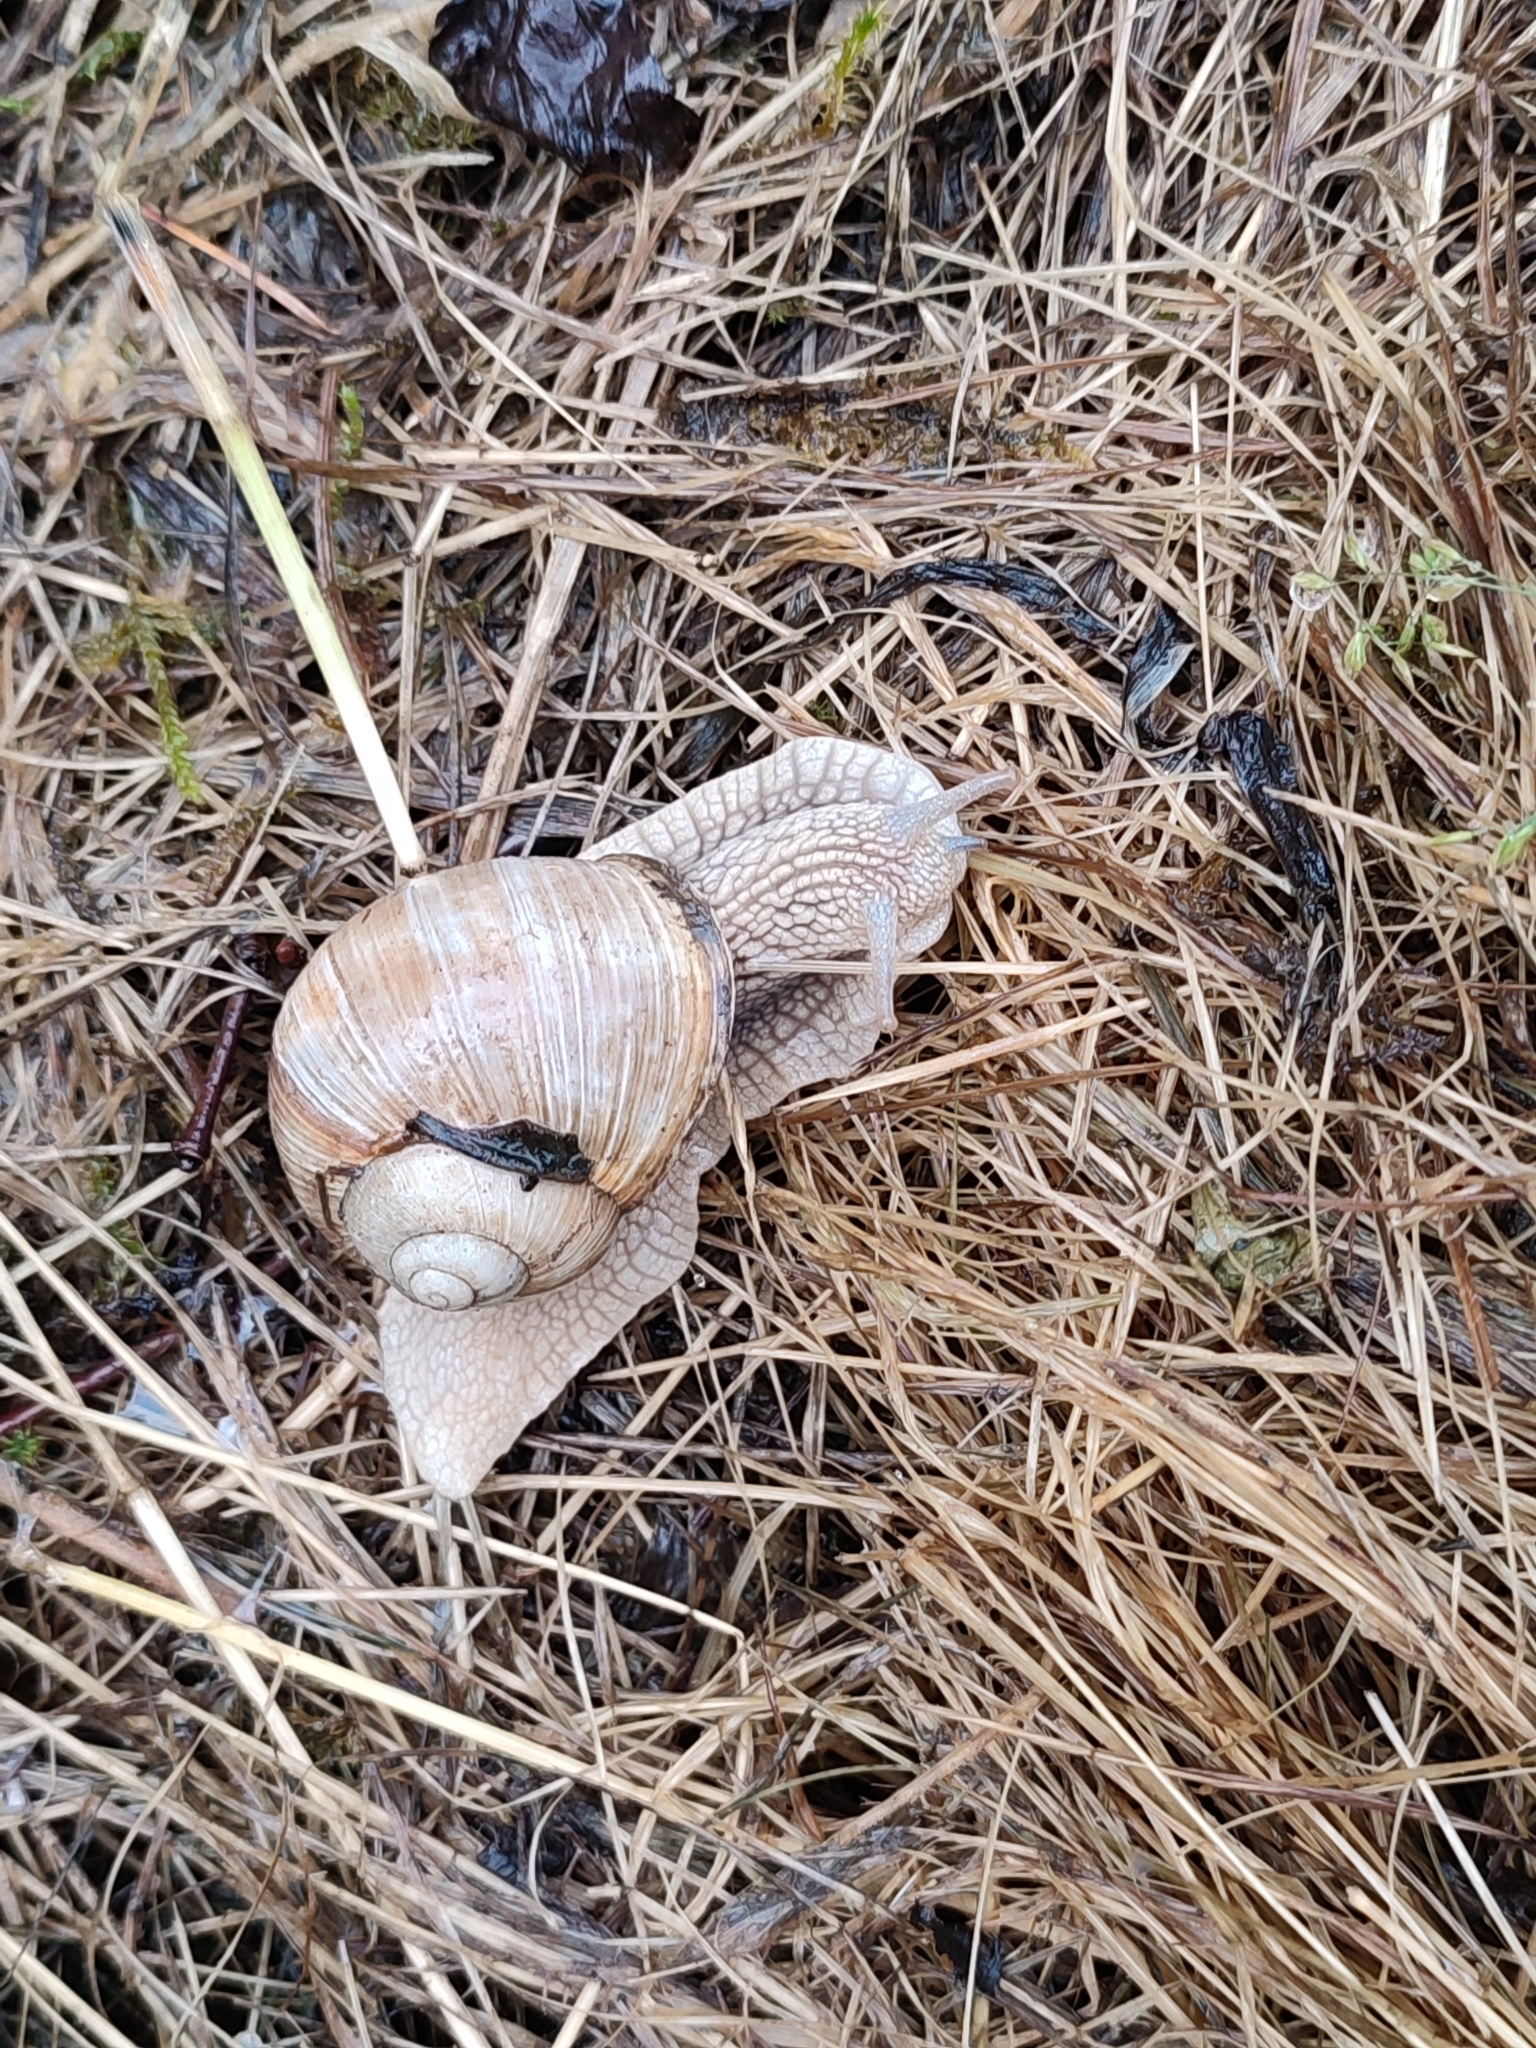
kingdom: Animalia
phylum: Mollusca
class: Gastropoda
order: Stylommatophora
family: Helicidae
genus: Helix
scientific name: Helix pomatia
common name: Roman snail
